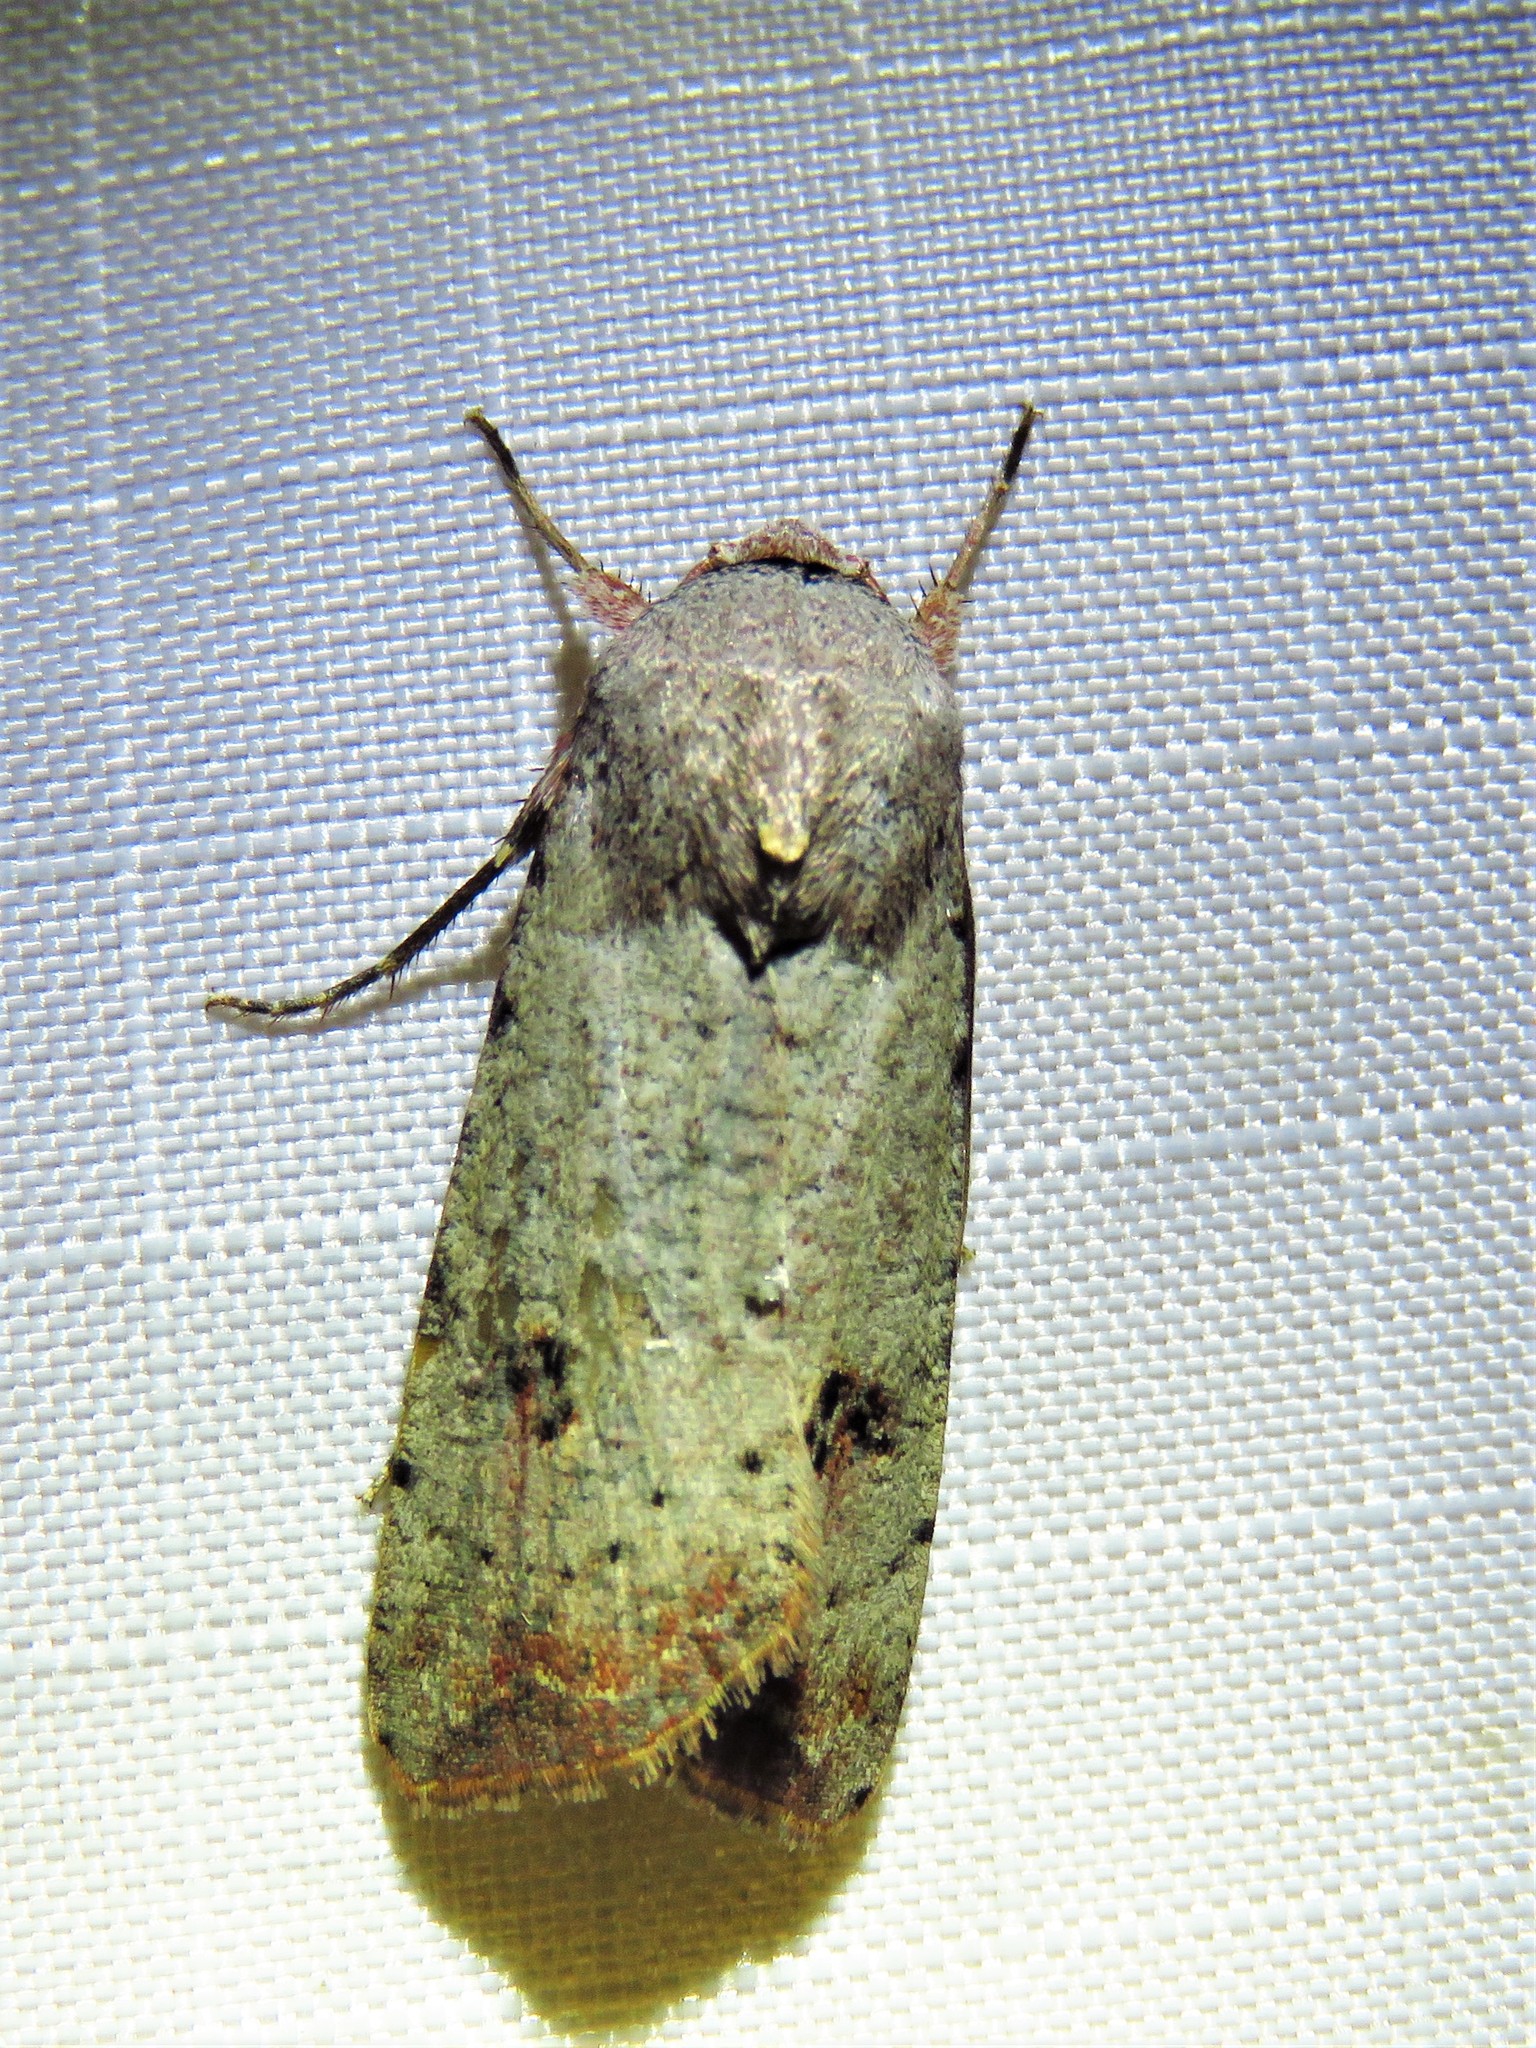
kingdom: Animalia
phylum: Arthropoda
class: Insecta
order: Lepidoptera
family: Noctuidae
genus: Anicla
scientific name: Anicla infecta
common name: Green cutworm
